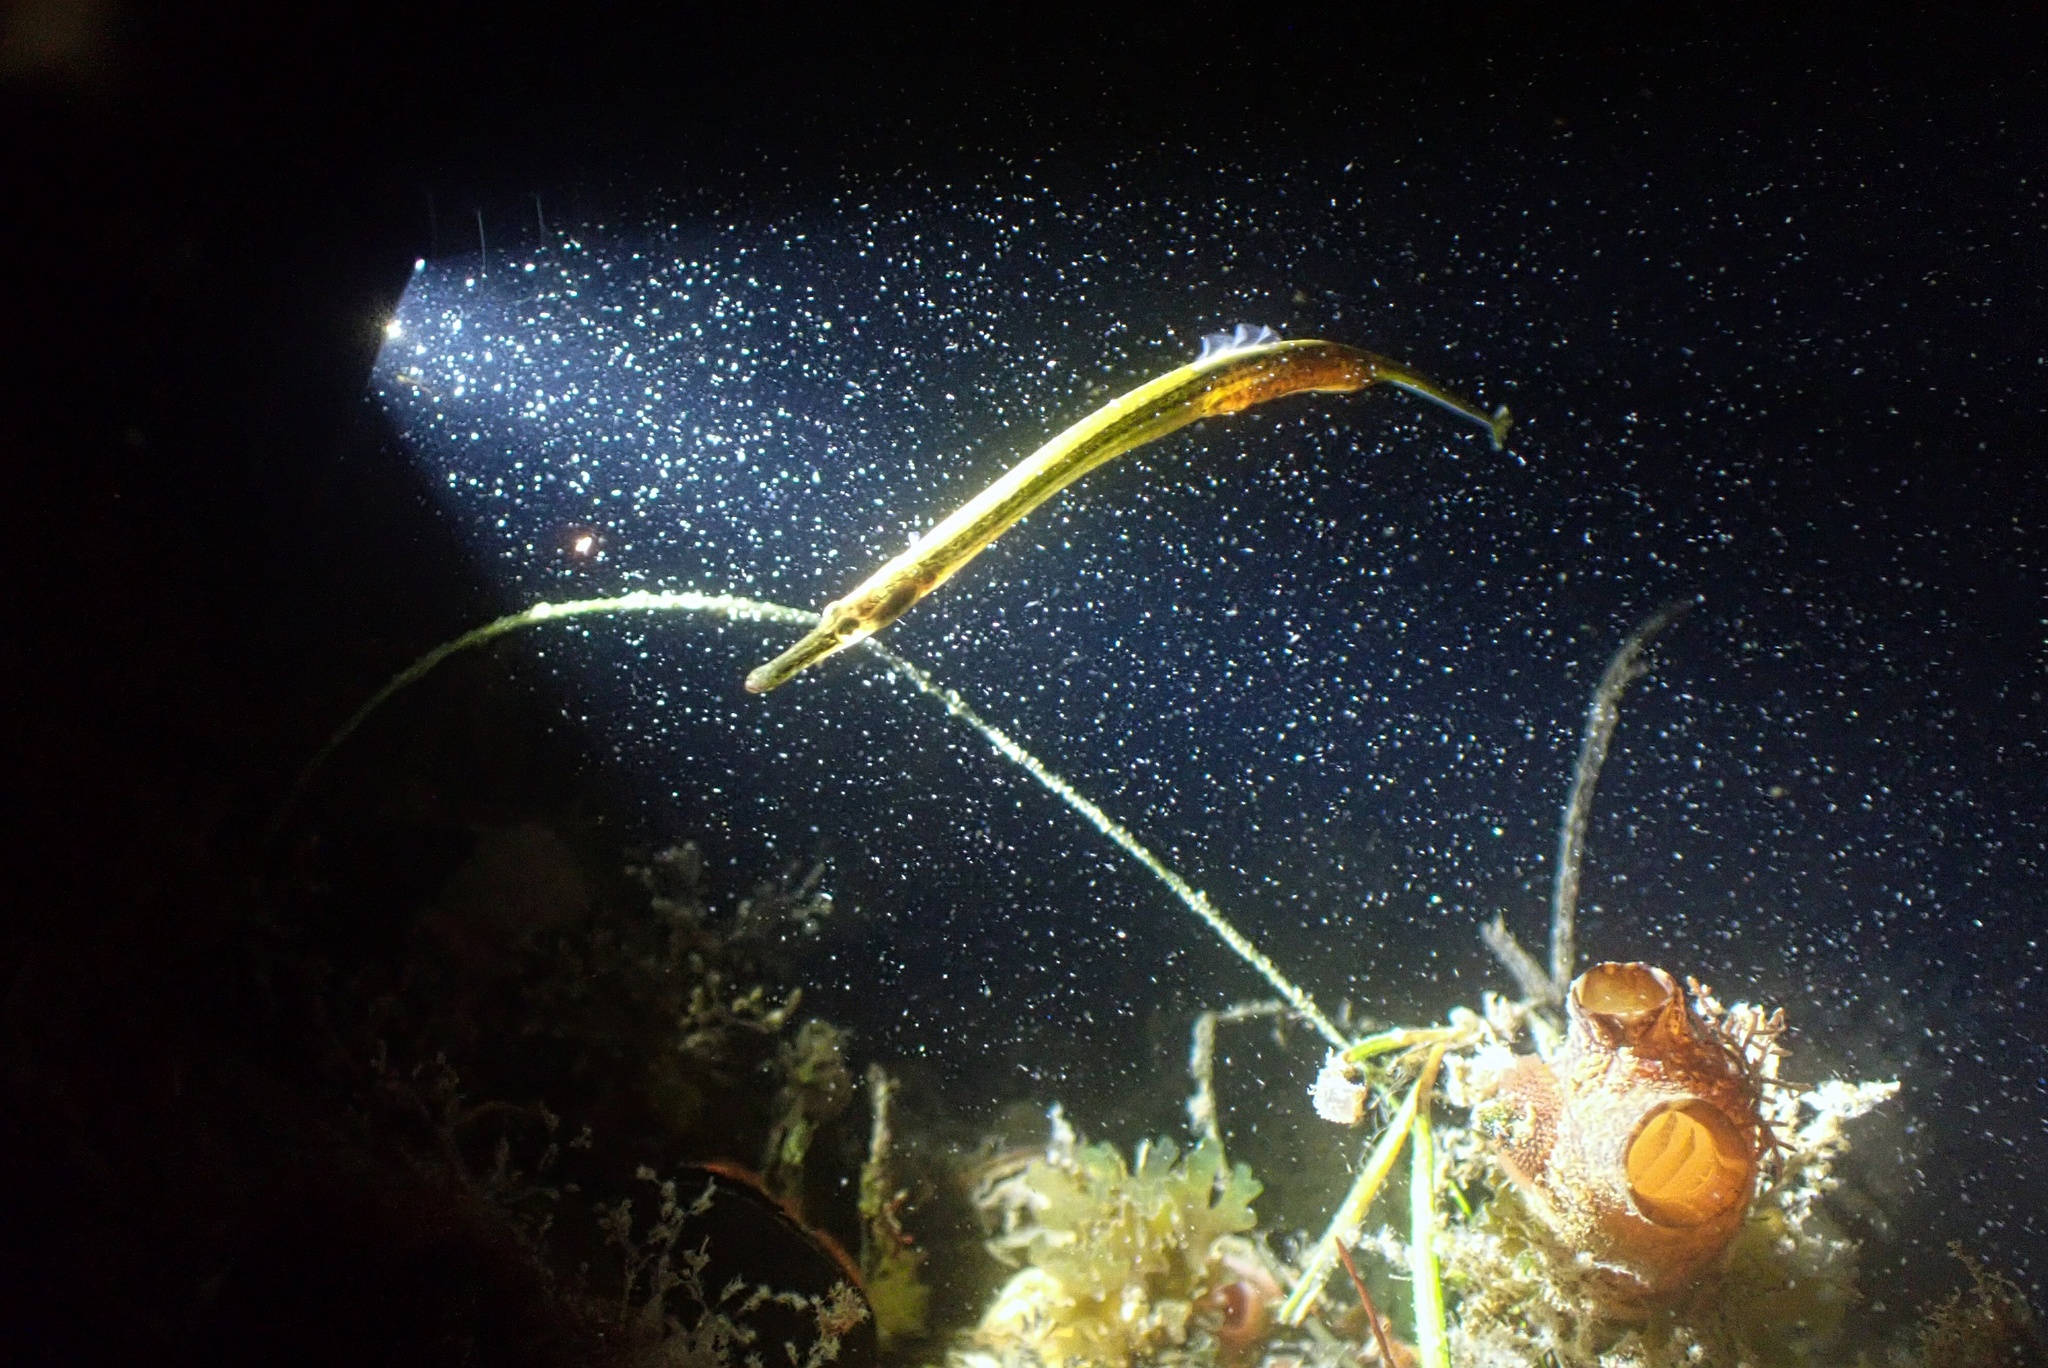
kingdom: Animalia
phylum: Chordata
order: Syngnathiformes
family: Syngnathidae
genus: Syngnathus
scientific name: Syngnathus californiensis
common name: Great pipefish
